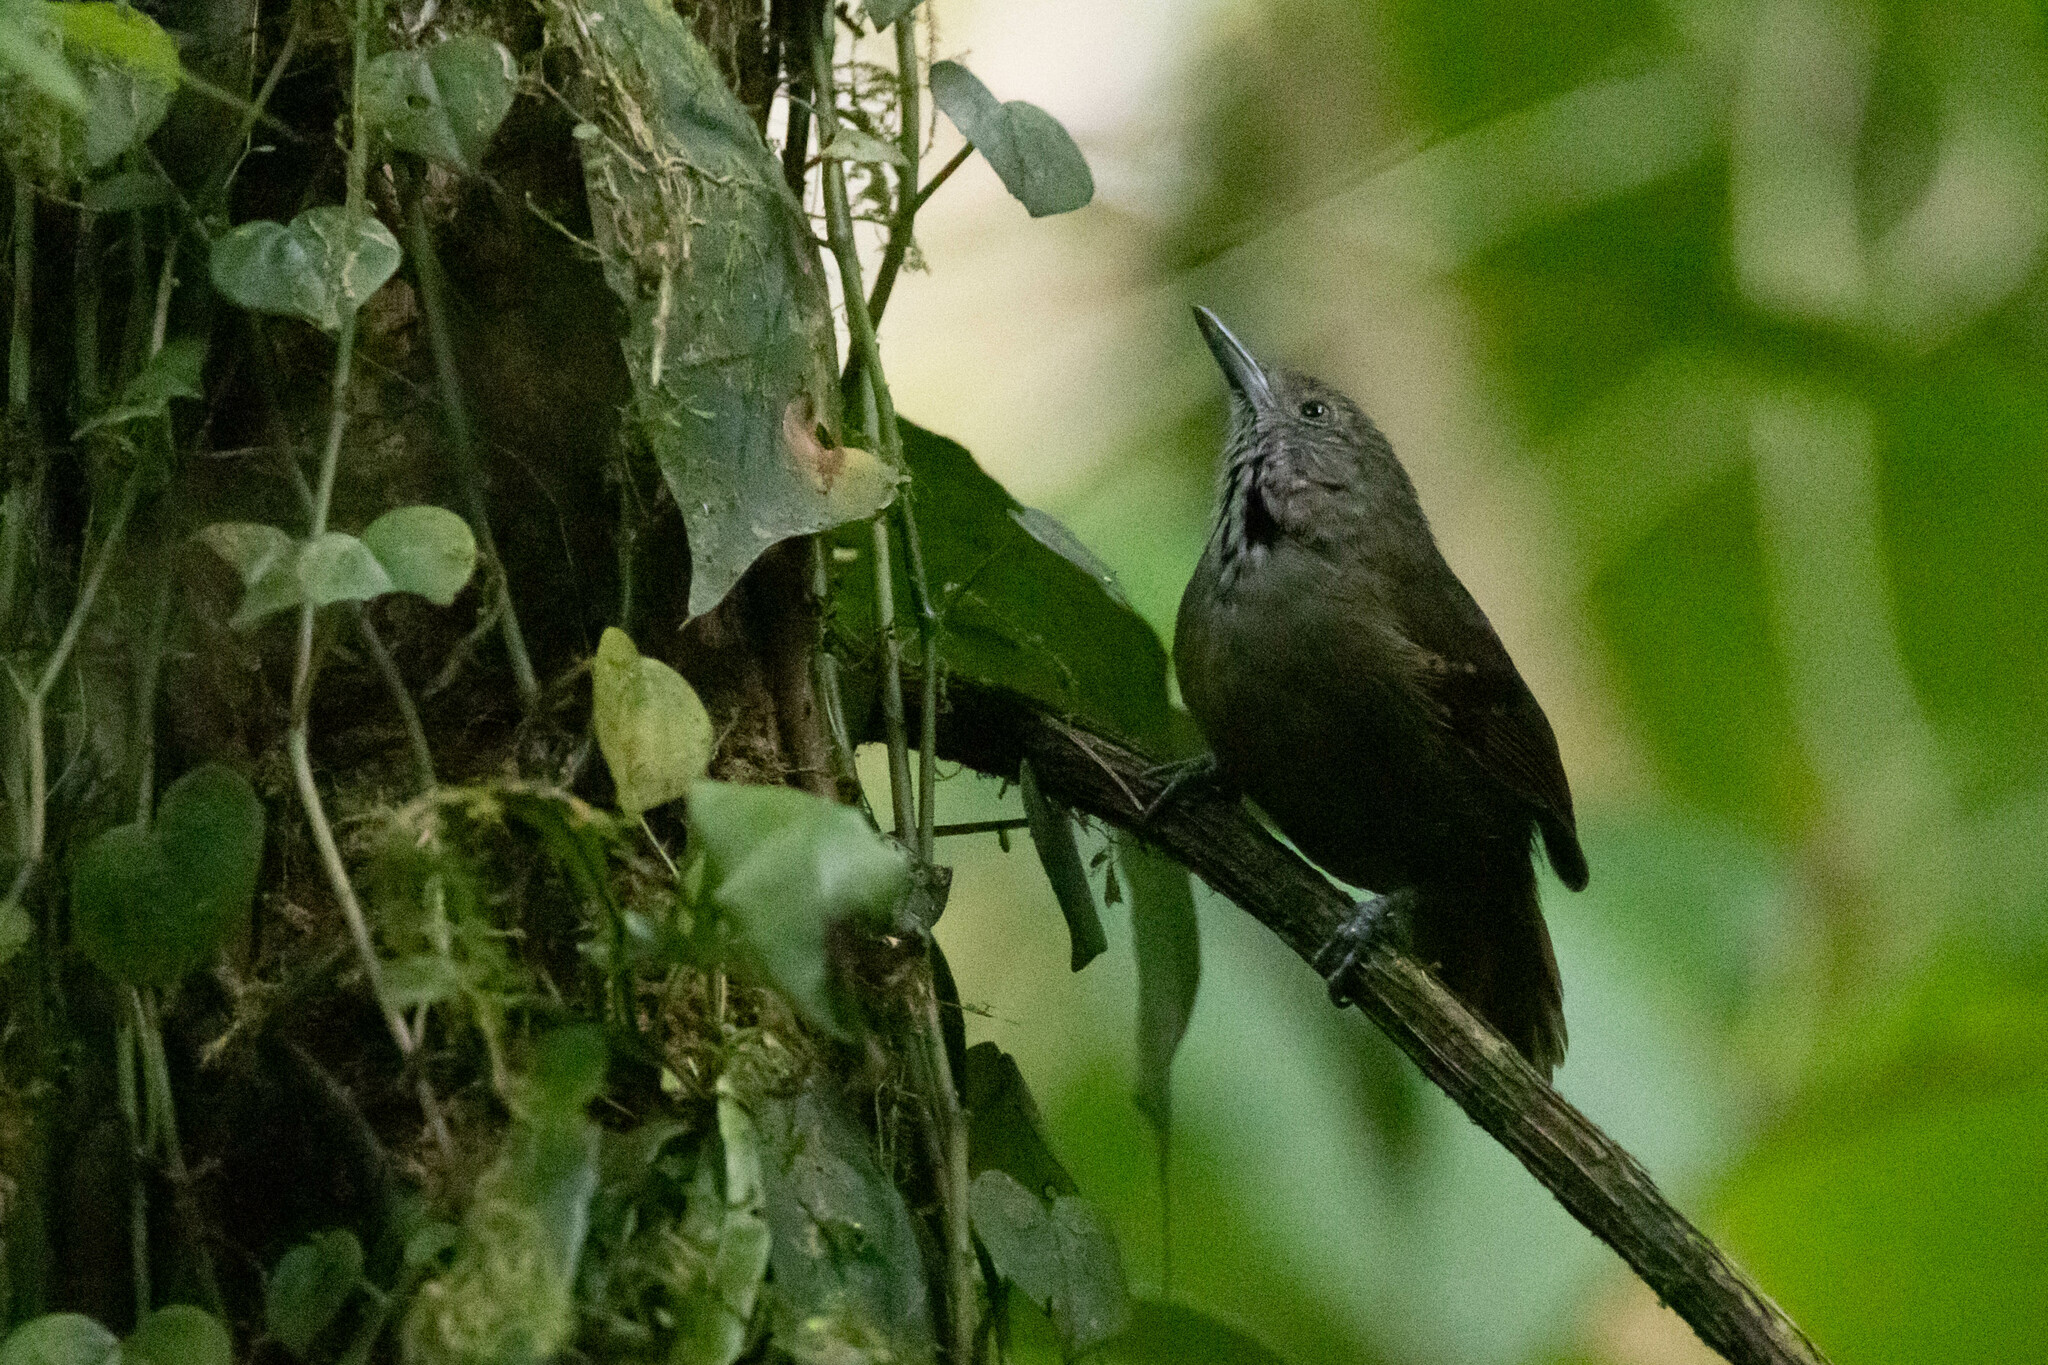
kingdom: Animalia
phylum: Chordata
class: Aves
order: Passeriformes
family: Thamnophilidae
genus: Epinecrophylla
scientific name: Epinecrophylla fulviventris
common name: Checker-throated antwren
